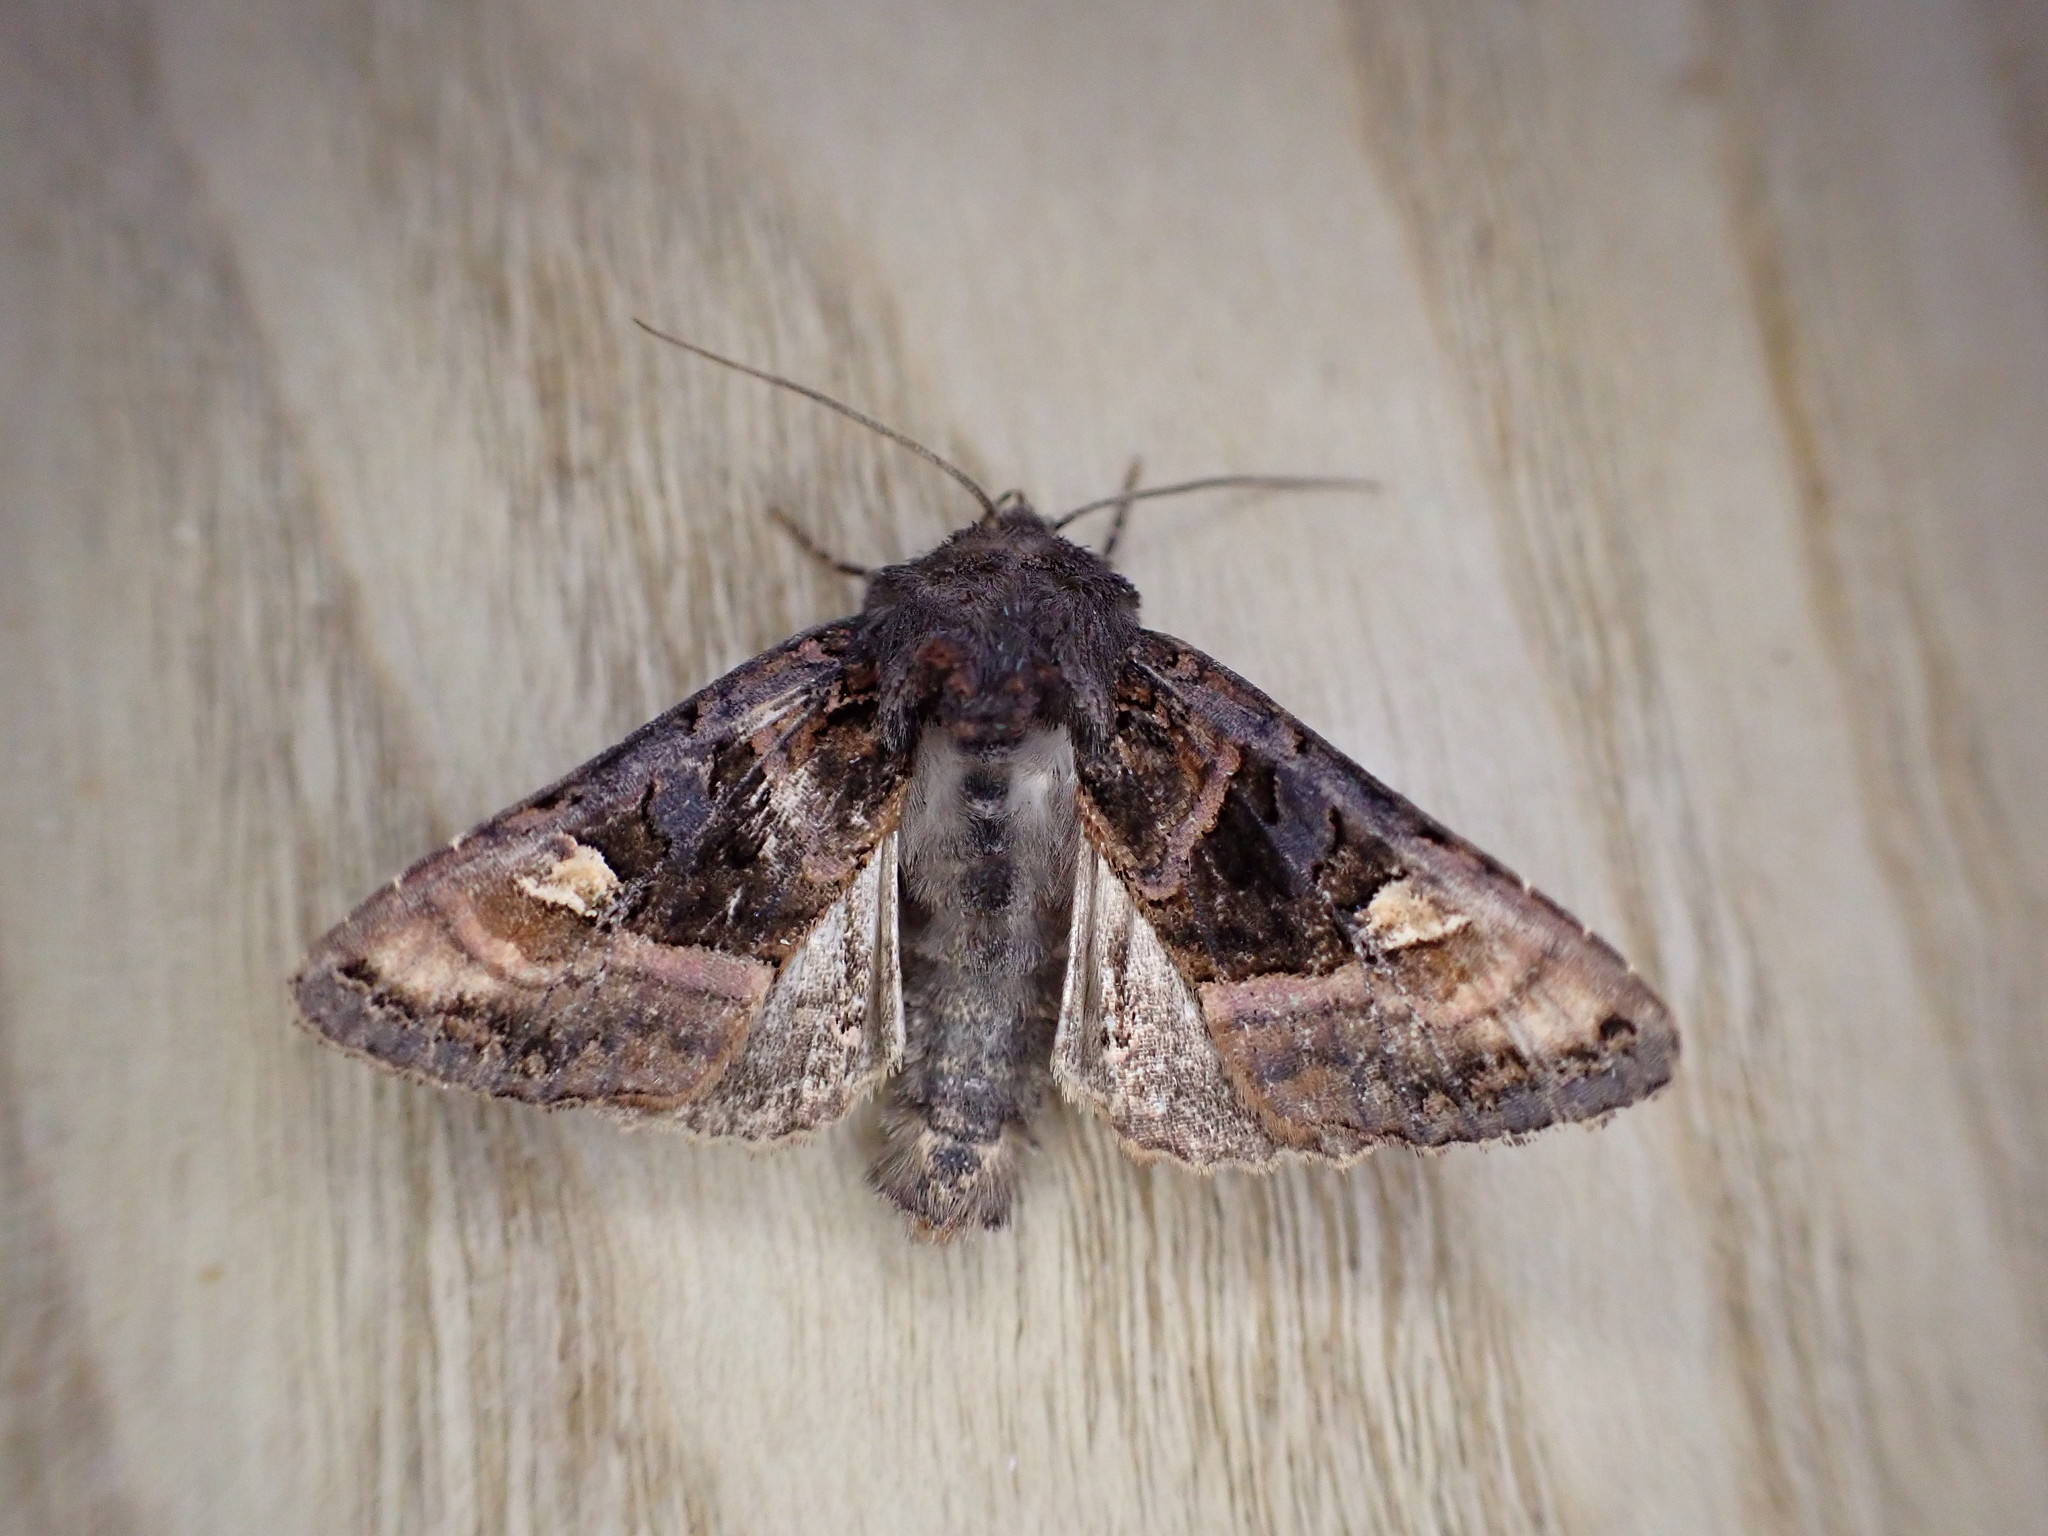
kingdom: Animalia
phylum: Arthropoda
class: Insecta
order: Lepidoptera
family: Noctuidae
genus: Euplexia
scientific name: Euplexia lucipara
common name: Small angle shades
